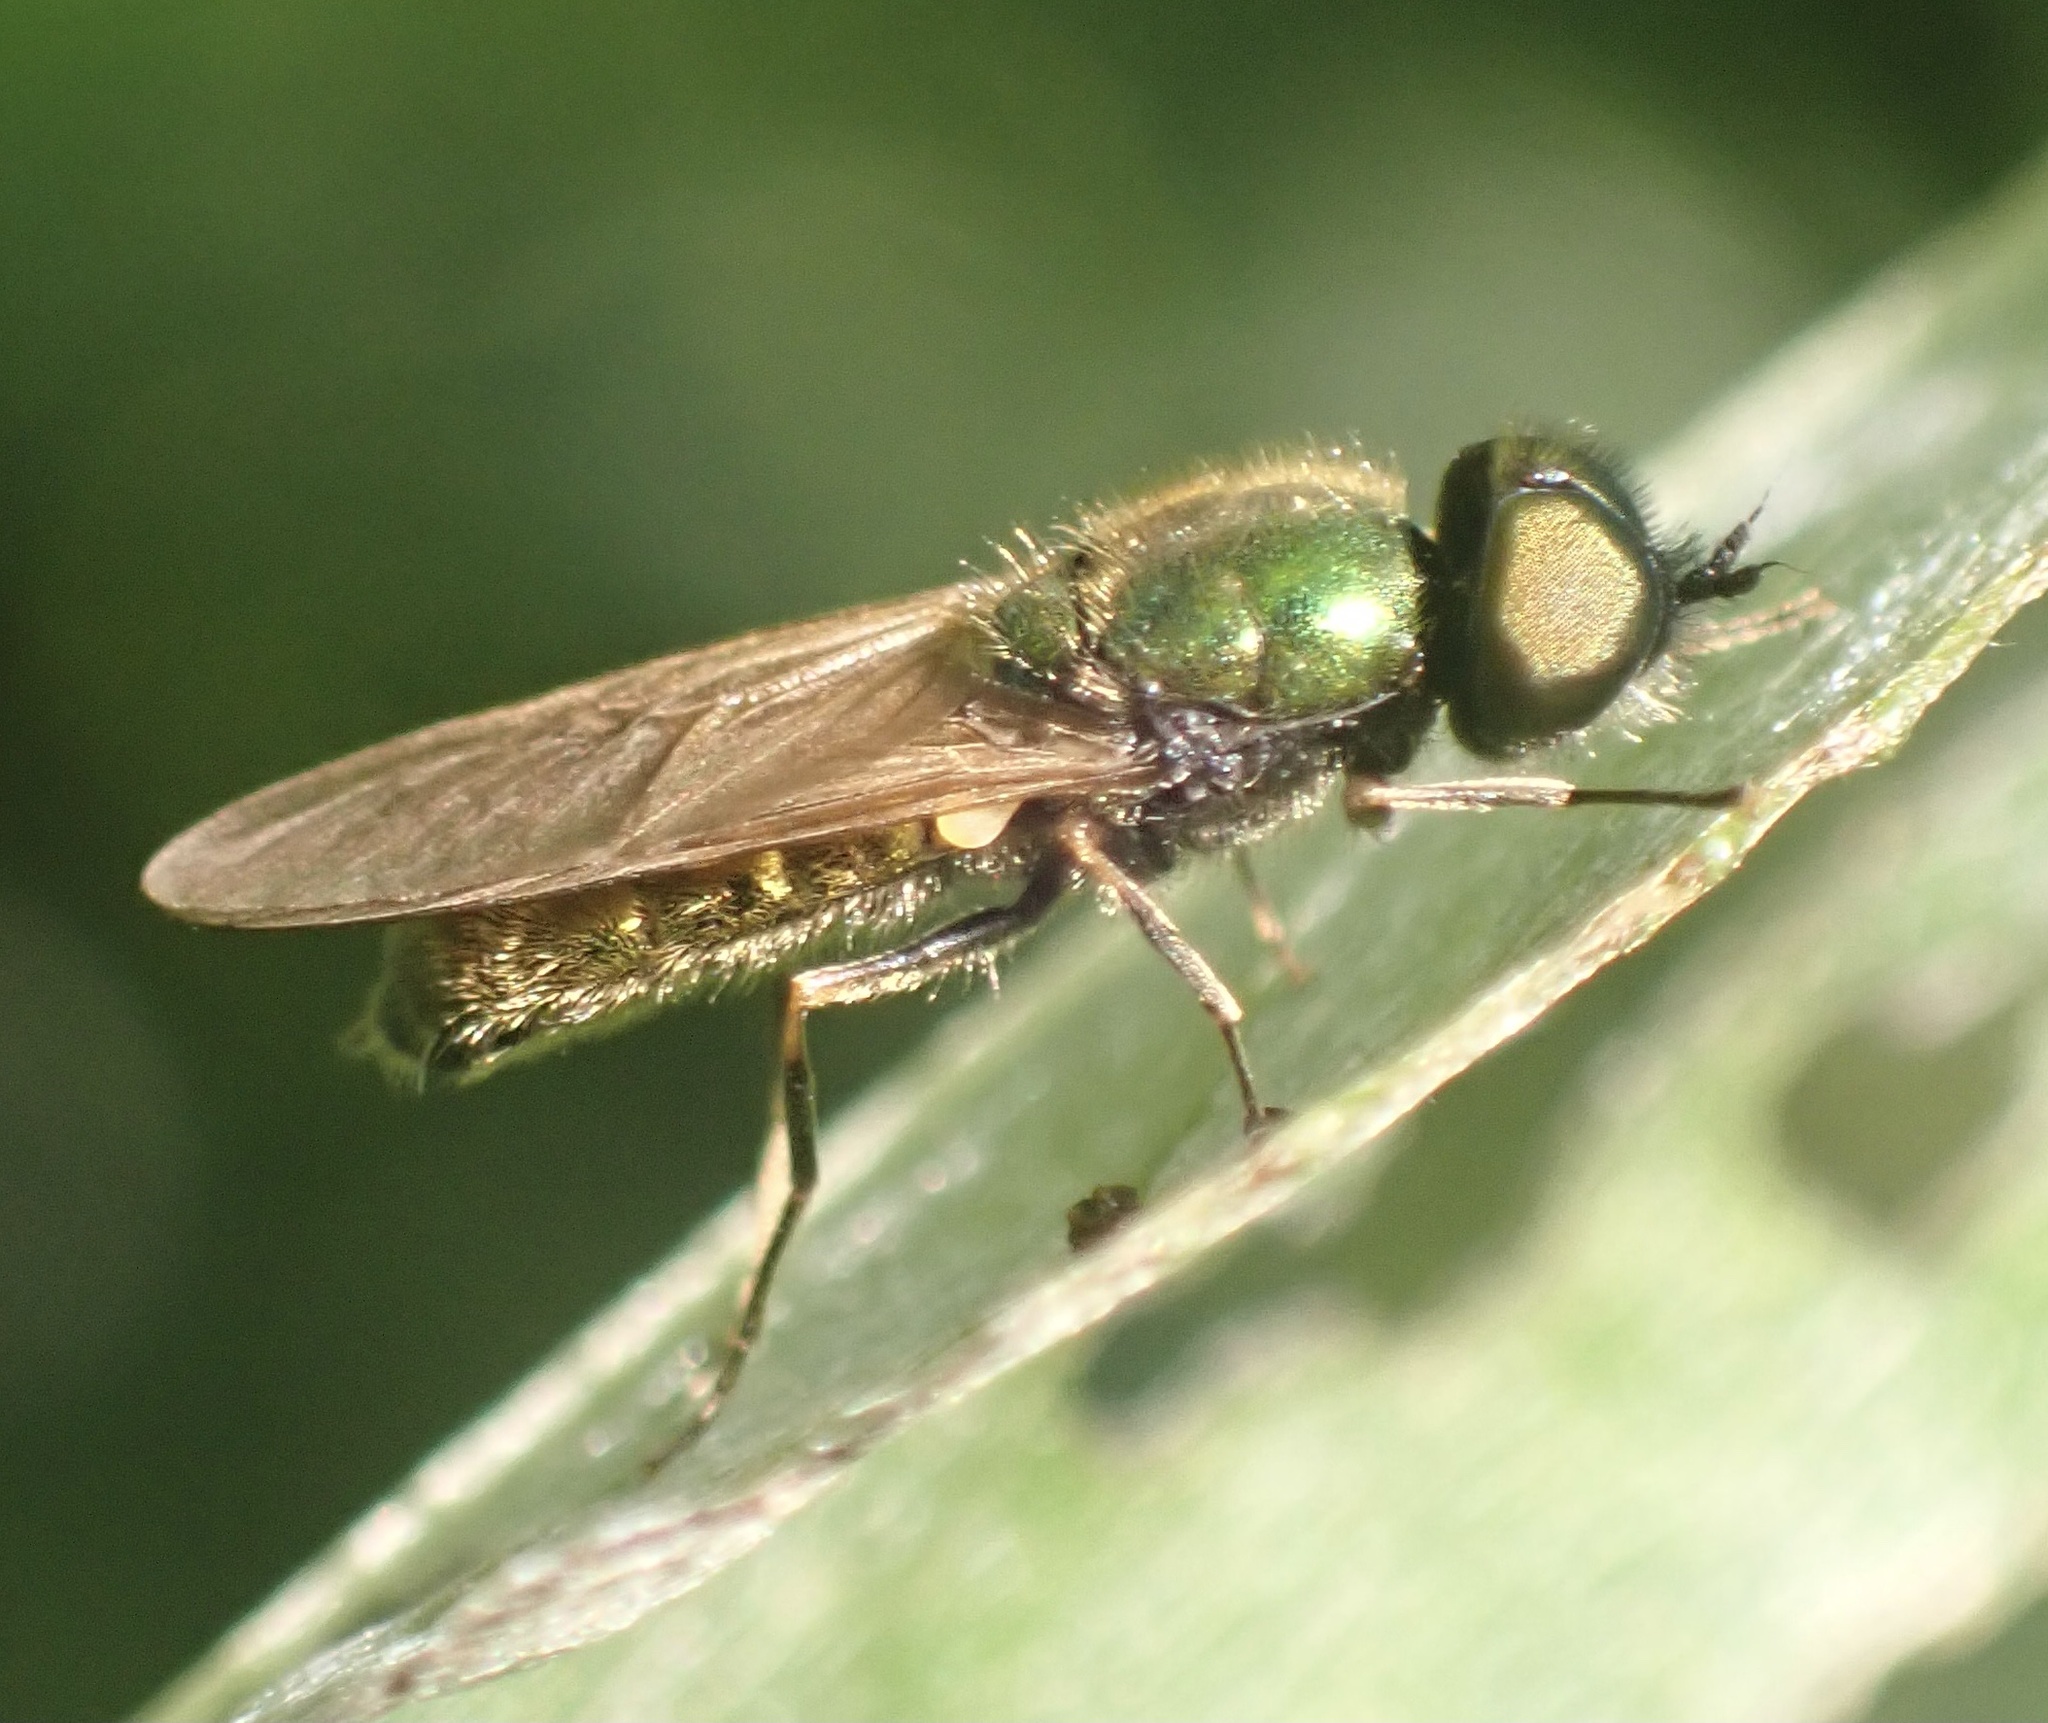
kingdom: Animalia
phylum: Arthropoda
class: Insecta
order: Diptera
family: Stratiomyidae
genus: Chloromyia
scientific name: Chloromyia formosa
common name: Soldier fly
